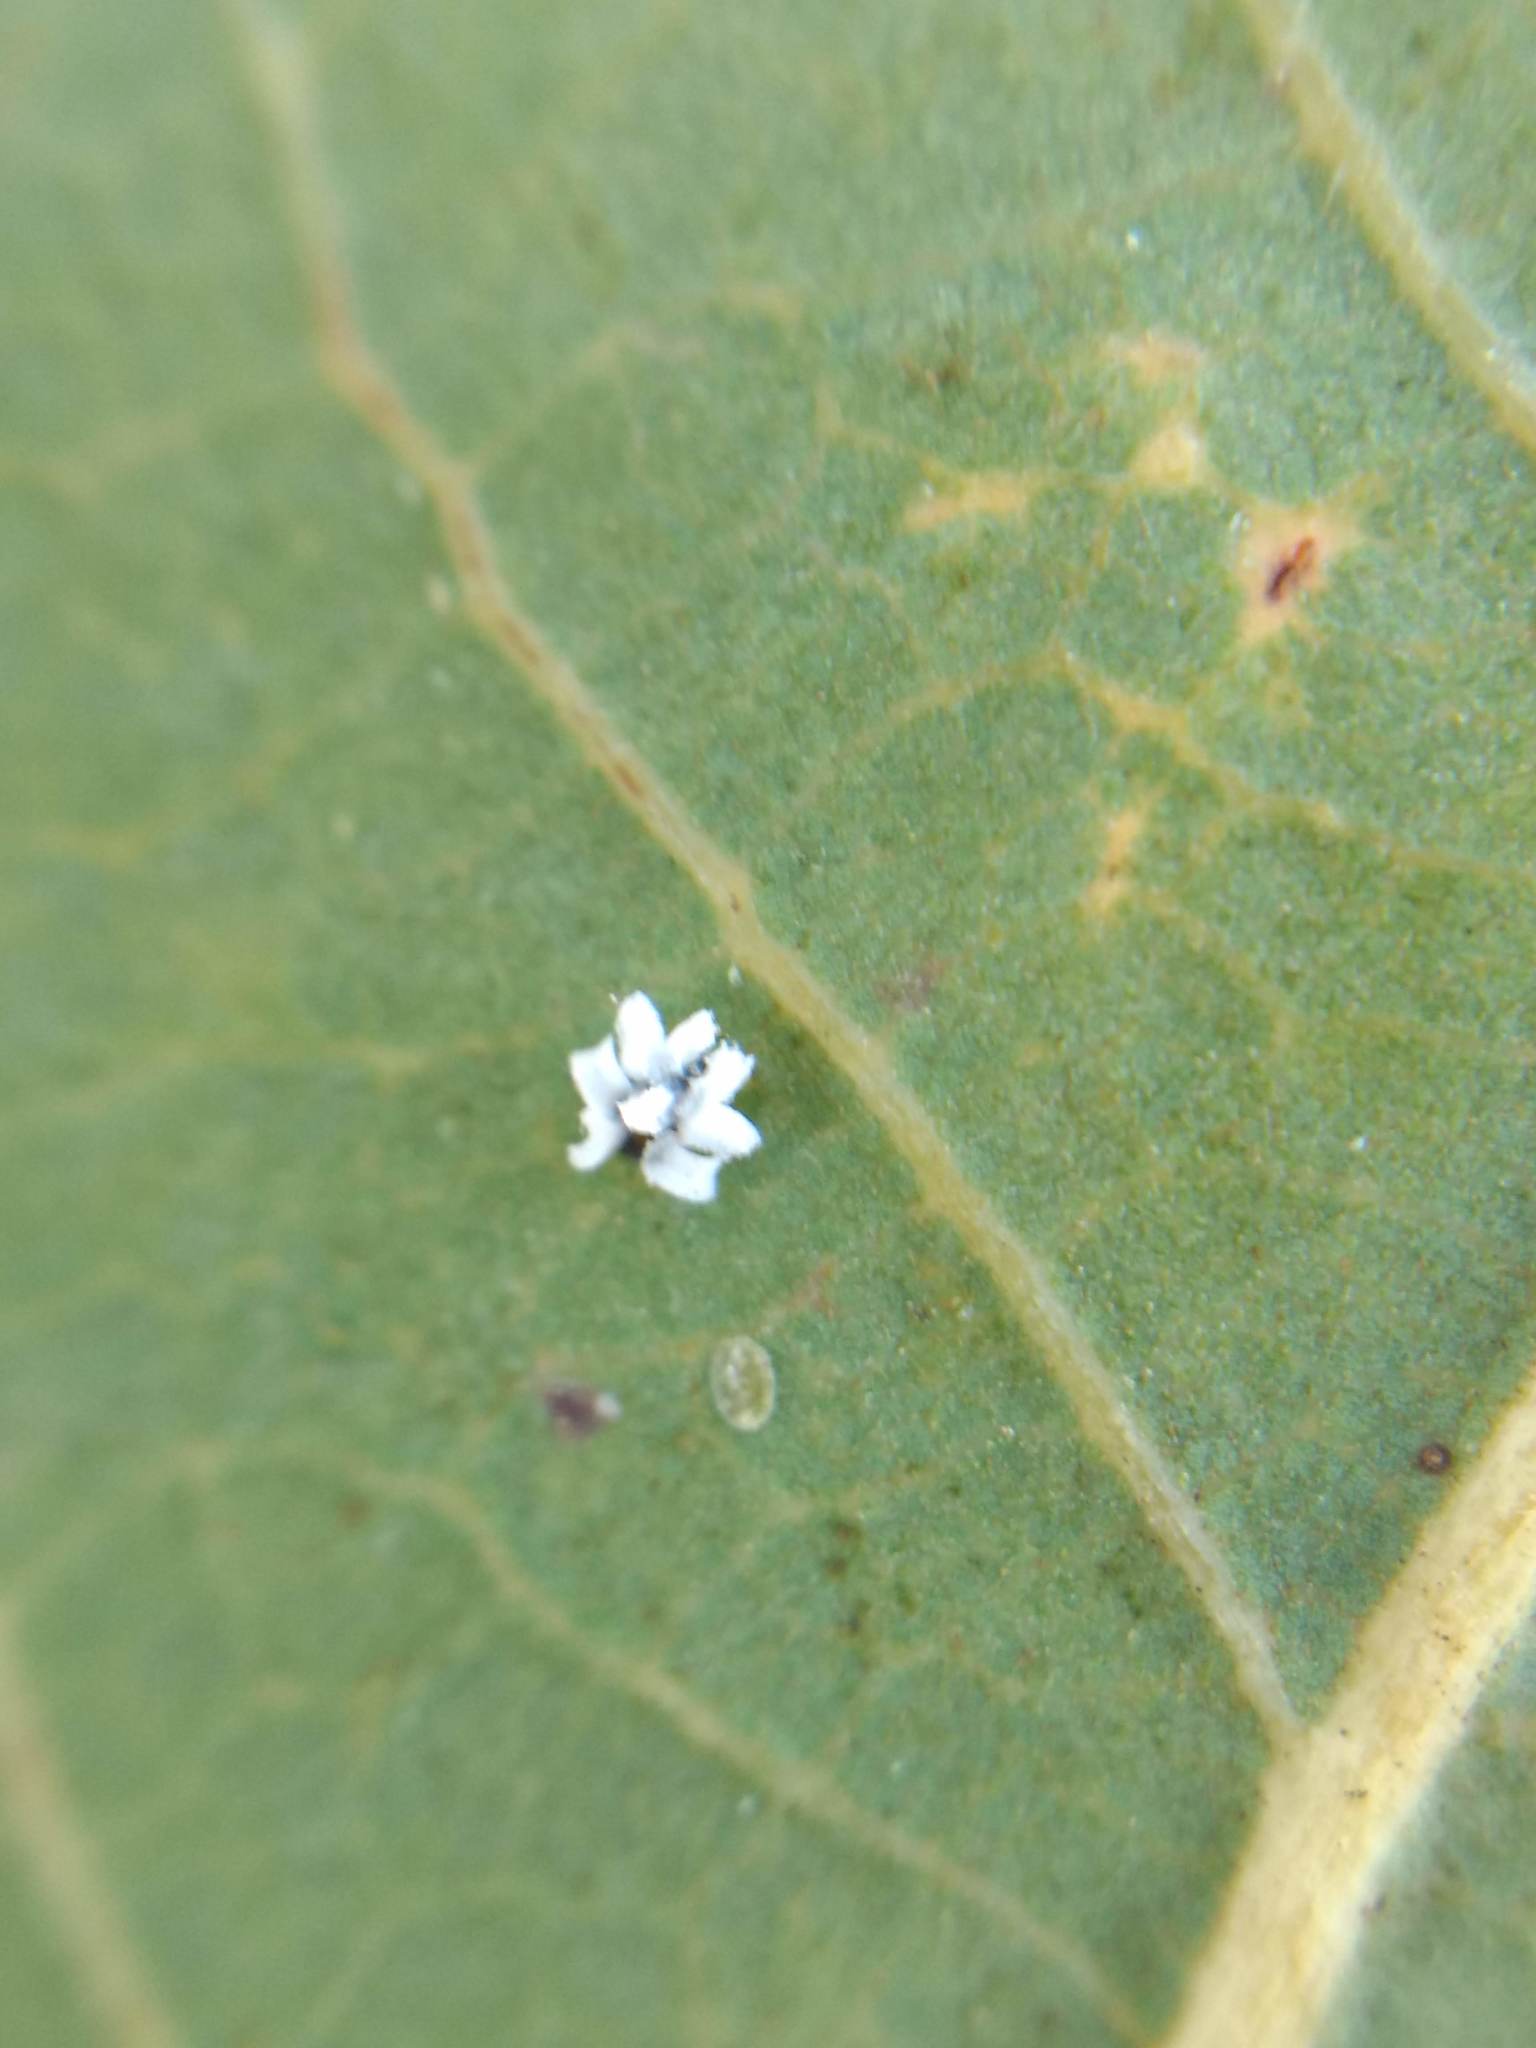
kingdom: Animalia
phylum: Arthropoda
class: Insecta
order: Hemiptera
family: Aleyrodidae
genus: Aleuroplatus
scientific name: Aleuroplatus coronata
